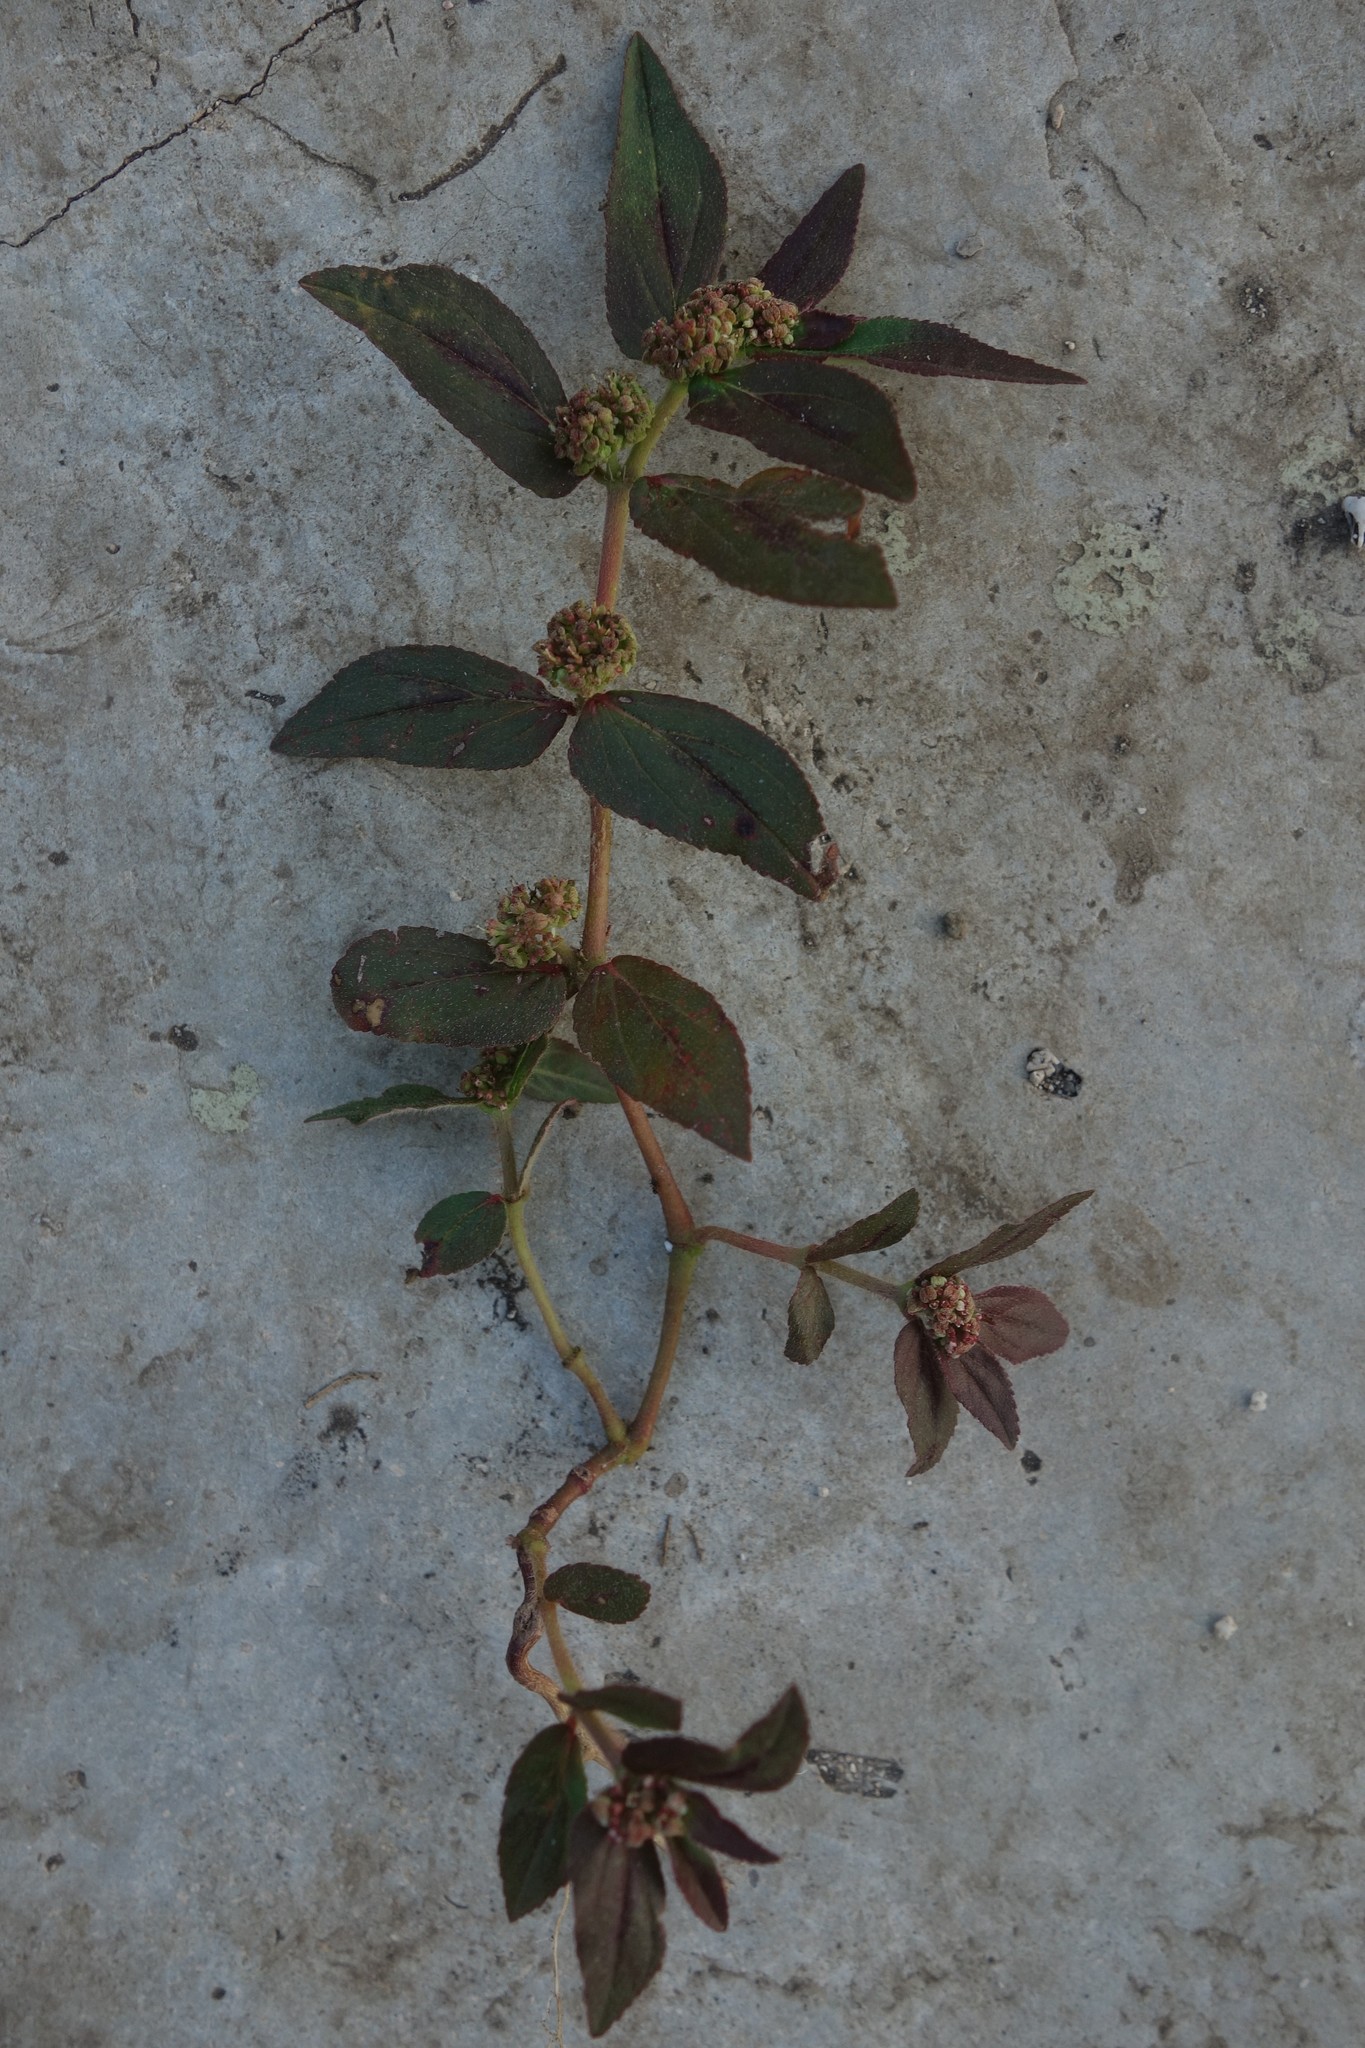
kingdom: Plantae
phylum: Tracheophyta
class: Magnoliopsida
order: Malpighiales
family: Euphorbiaceae
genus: Euphorbia
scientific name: Euphorbia hirta
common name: Pillpod sandmat
